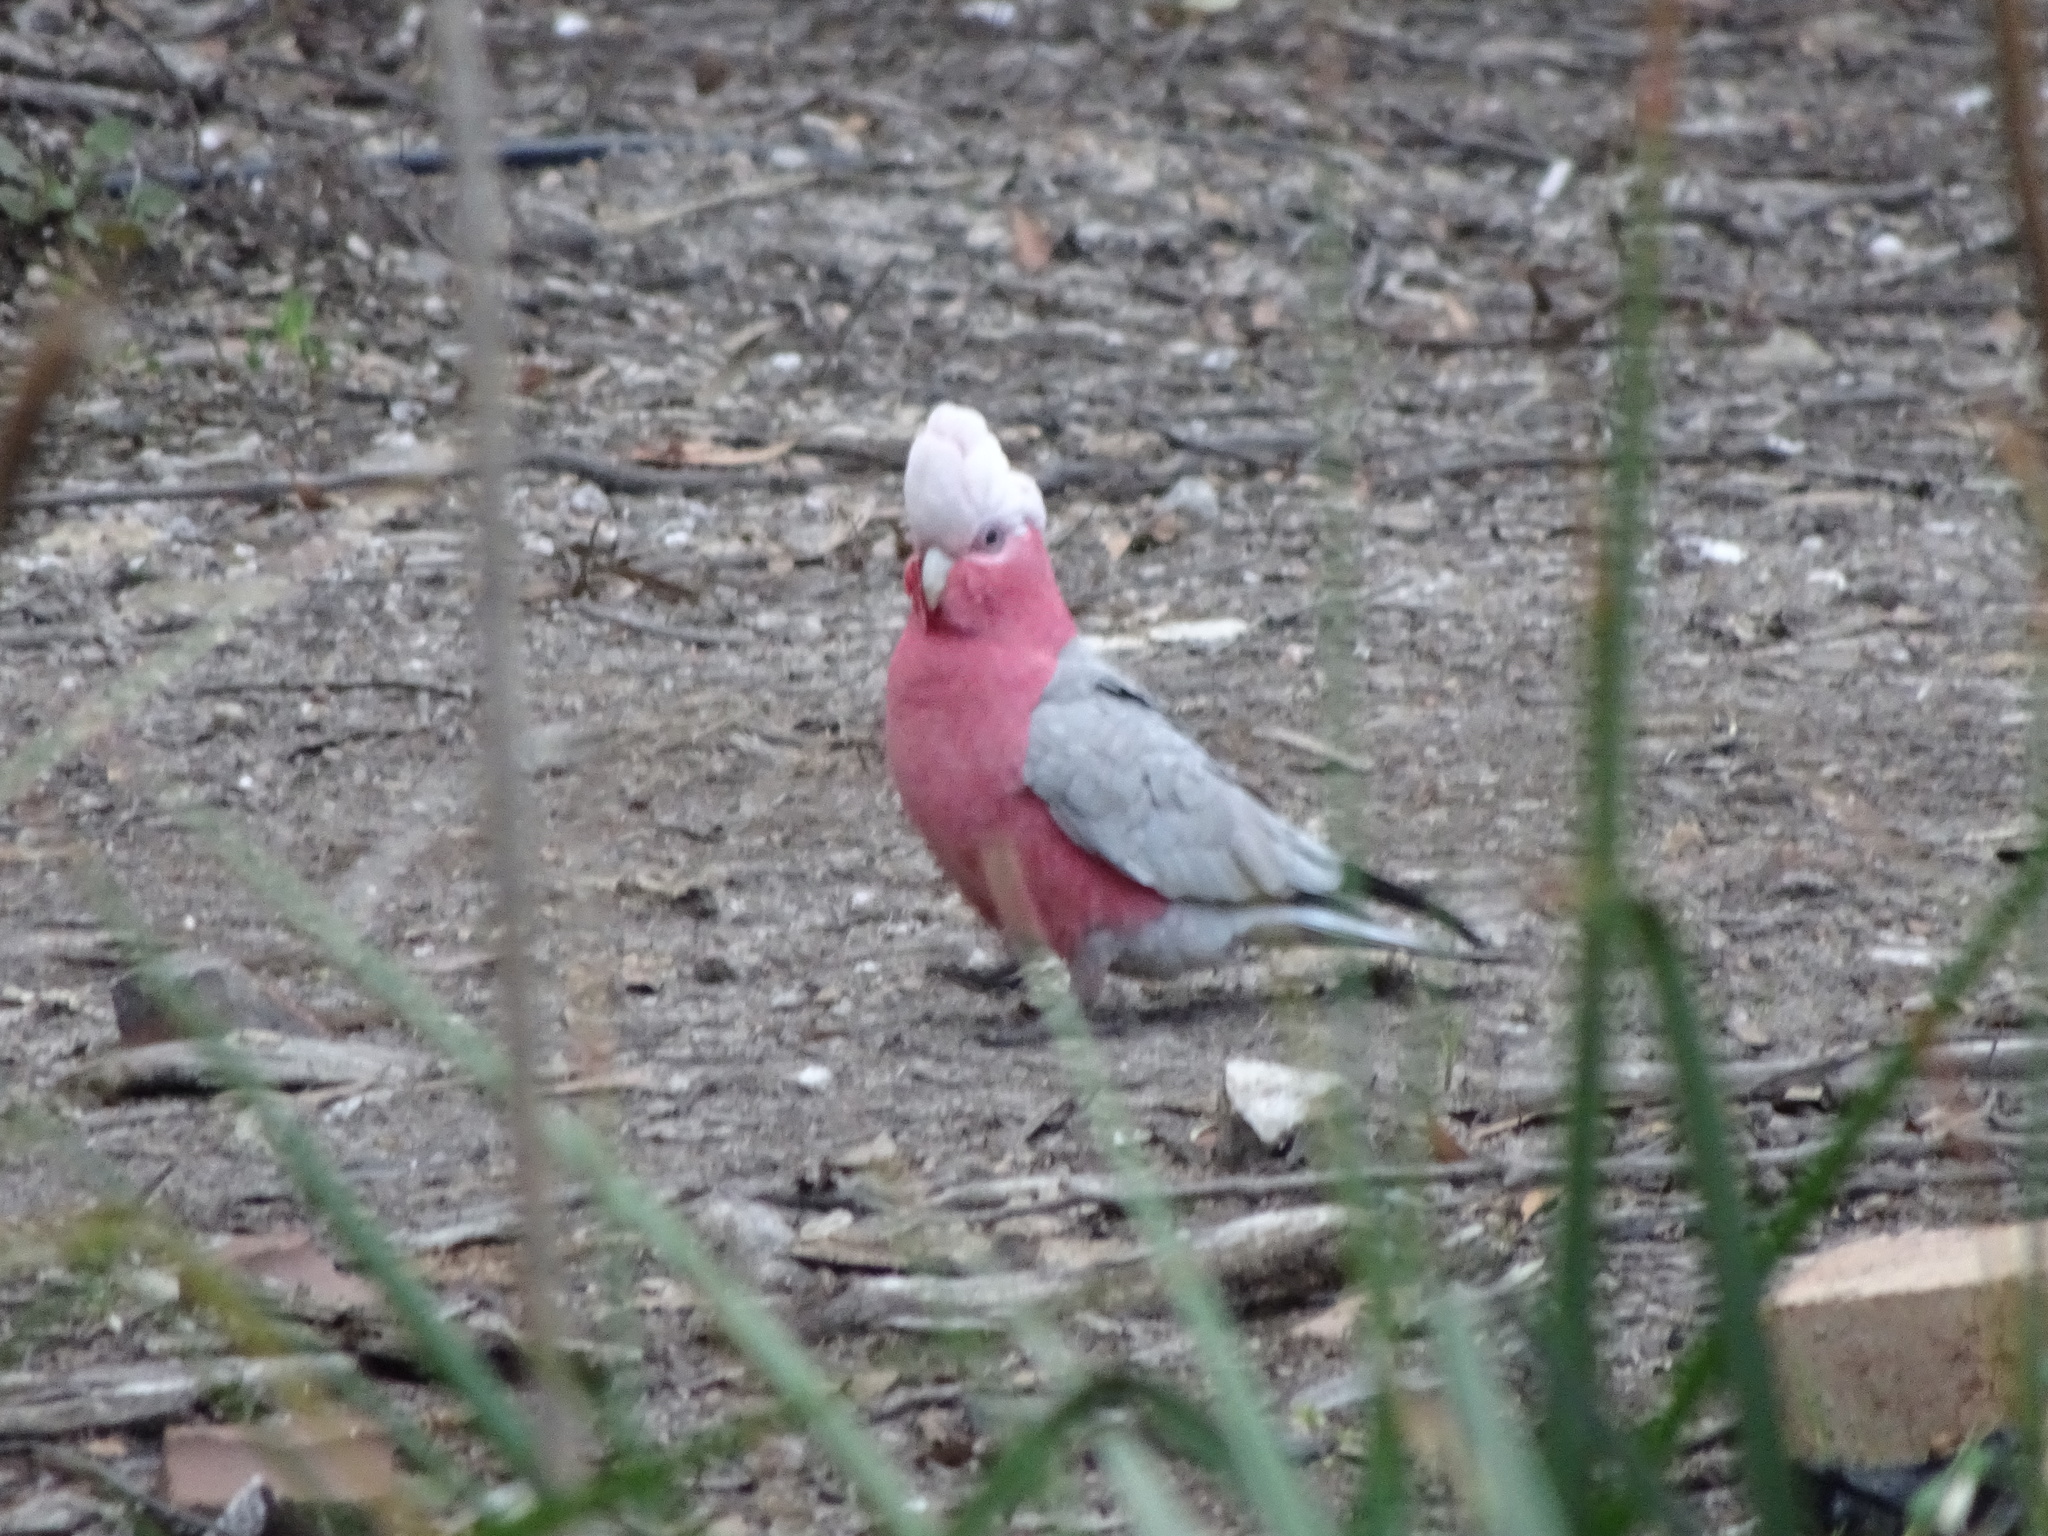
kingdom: Animalia
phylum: Chordata
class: Aves
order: Psittaciformes
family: Psittacidae
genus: Eolophus
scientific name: Eolophus roseicapilla
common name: Galah
